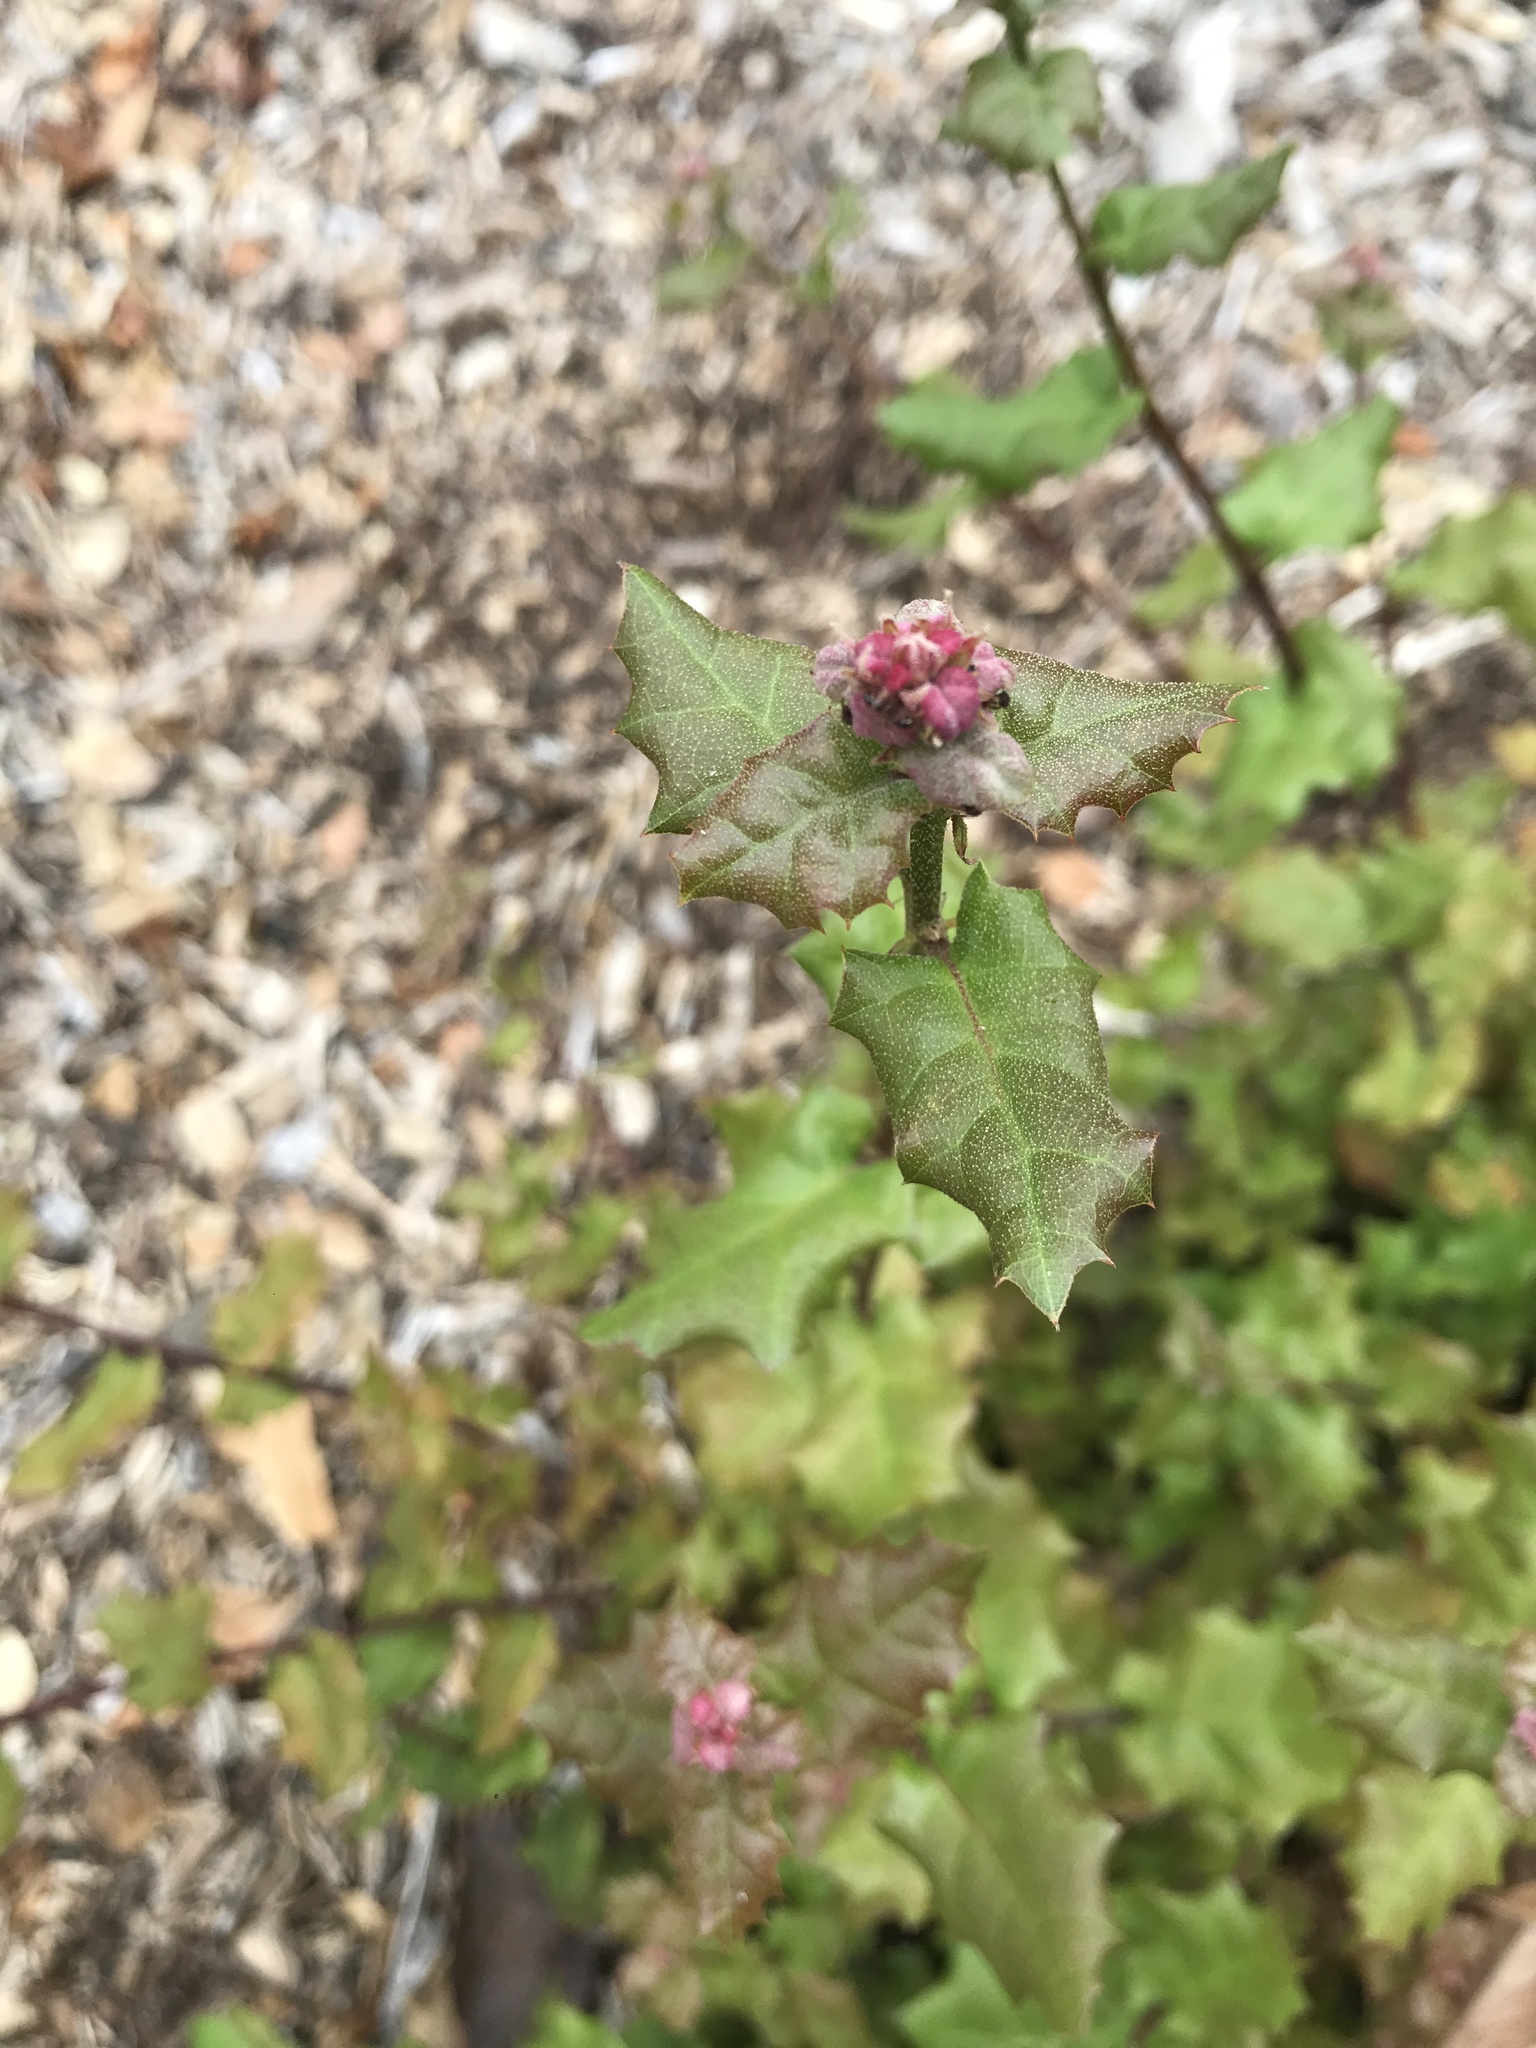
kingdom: Plantae
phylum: Tracheophyta
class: Magnoliopsida
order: Fagales
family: Fagaceae
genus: Quercus
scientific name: Quercus agrifolia
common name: California live oak
